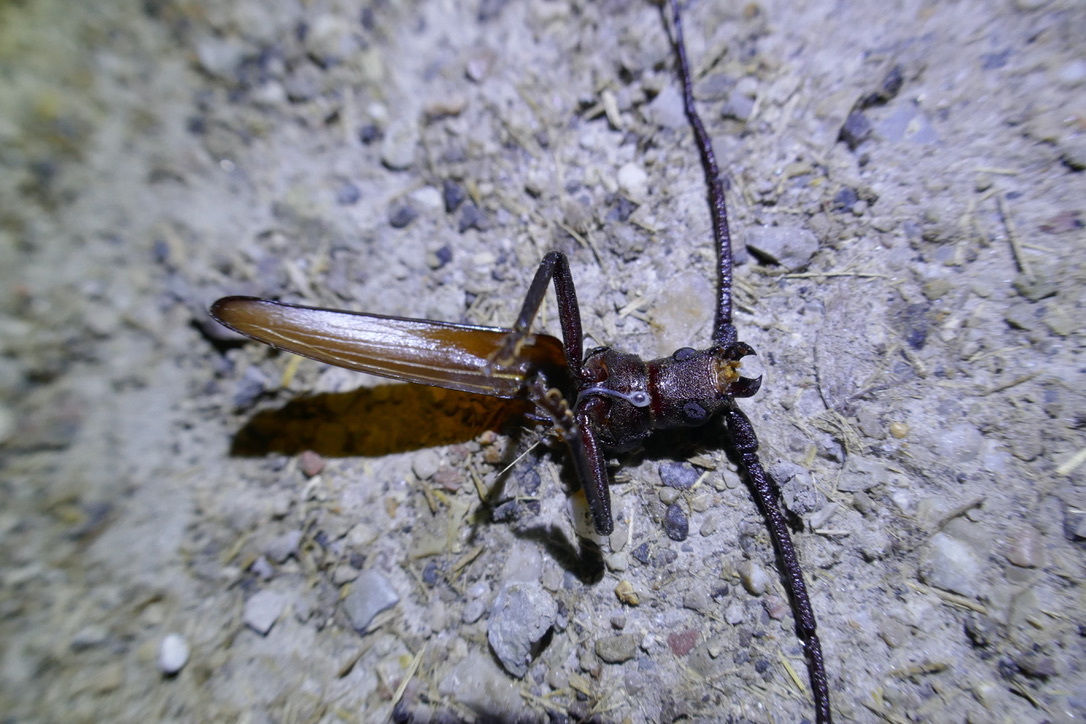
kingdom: Animalia
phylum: Arthropoda
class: Insecta
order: Coleoptera
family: Cerambycidae
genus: Aegosoma
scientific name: Aegosoma scabricorne
